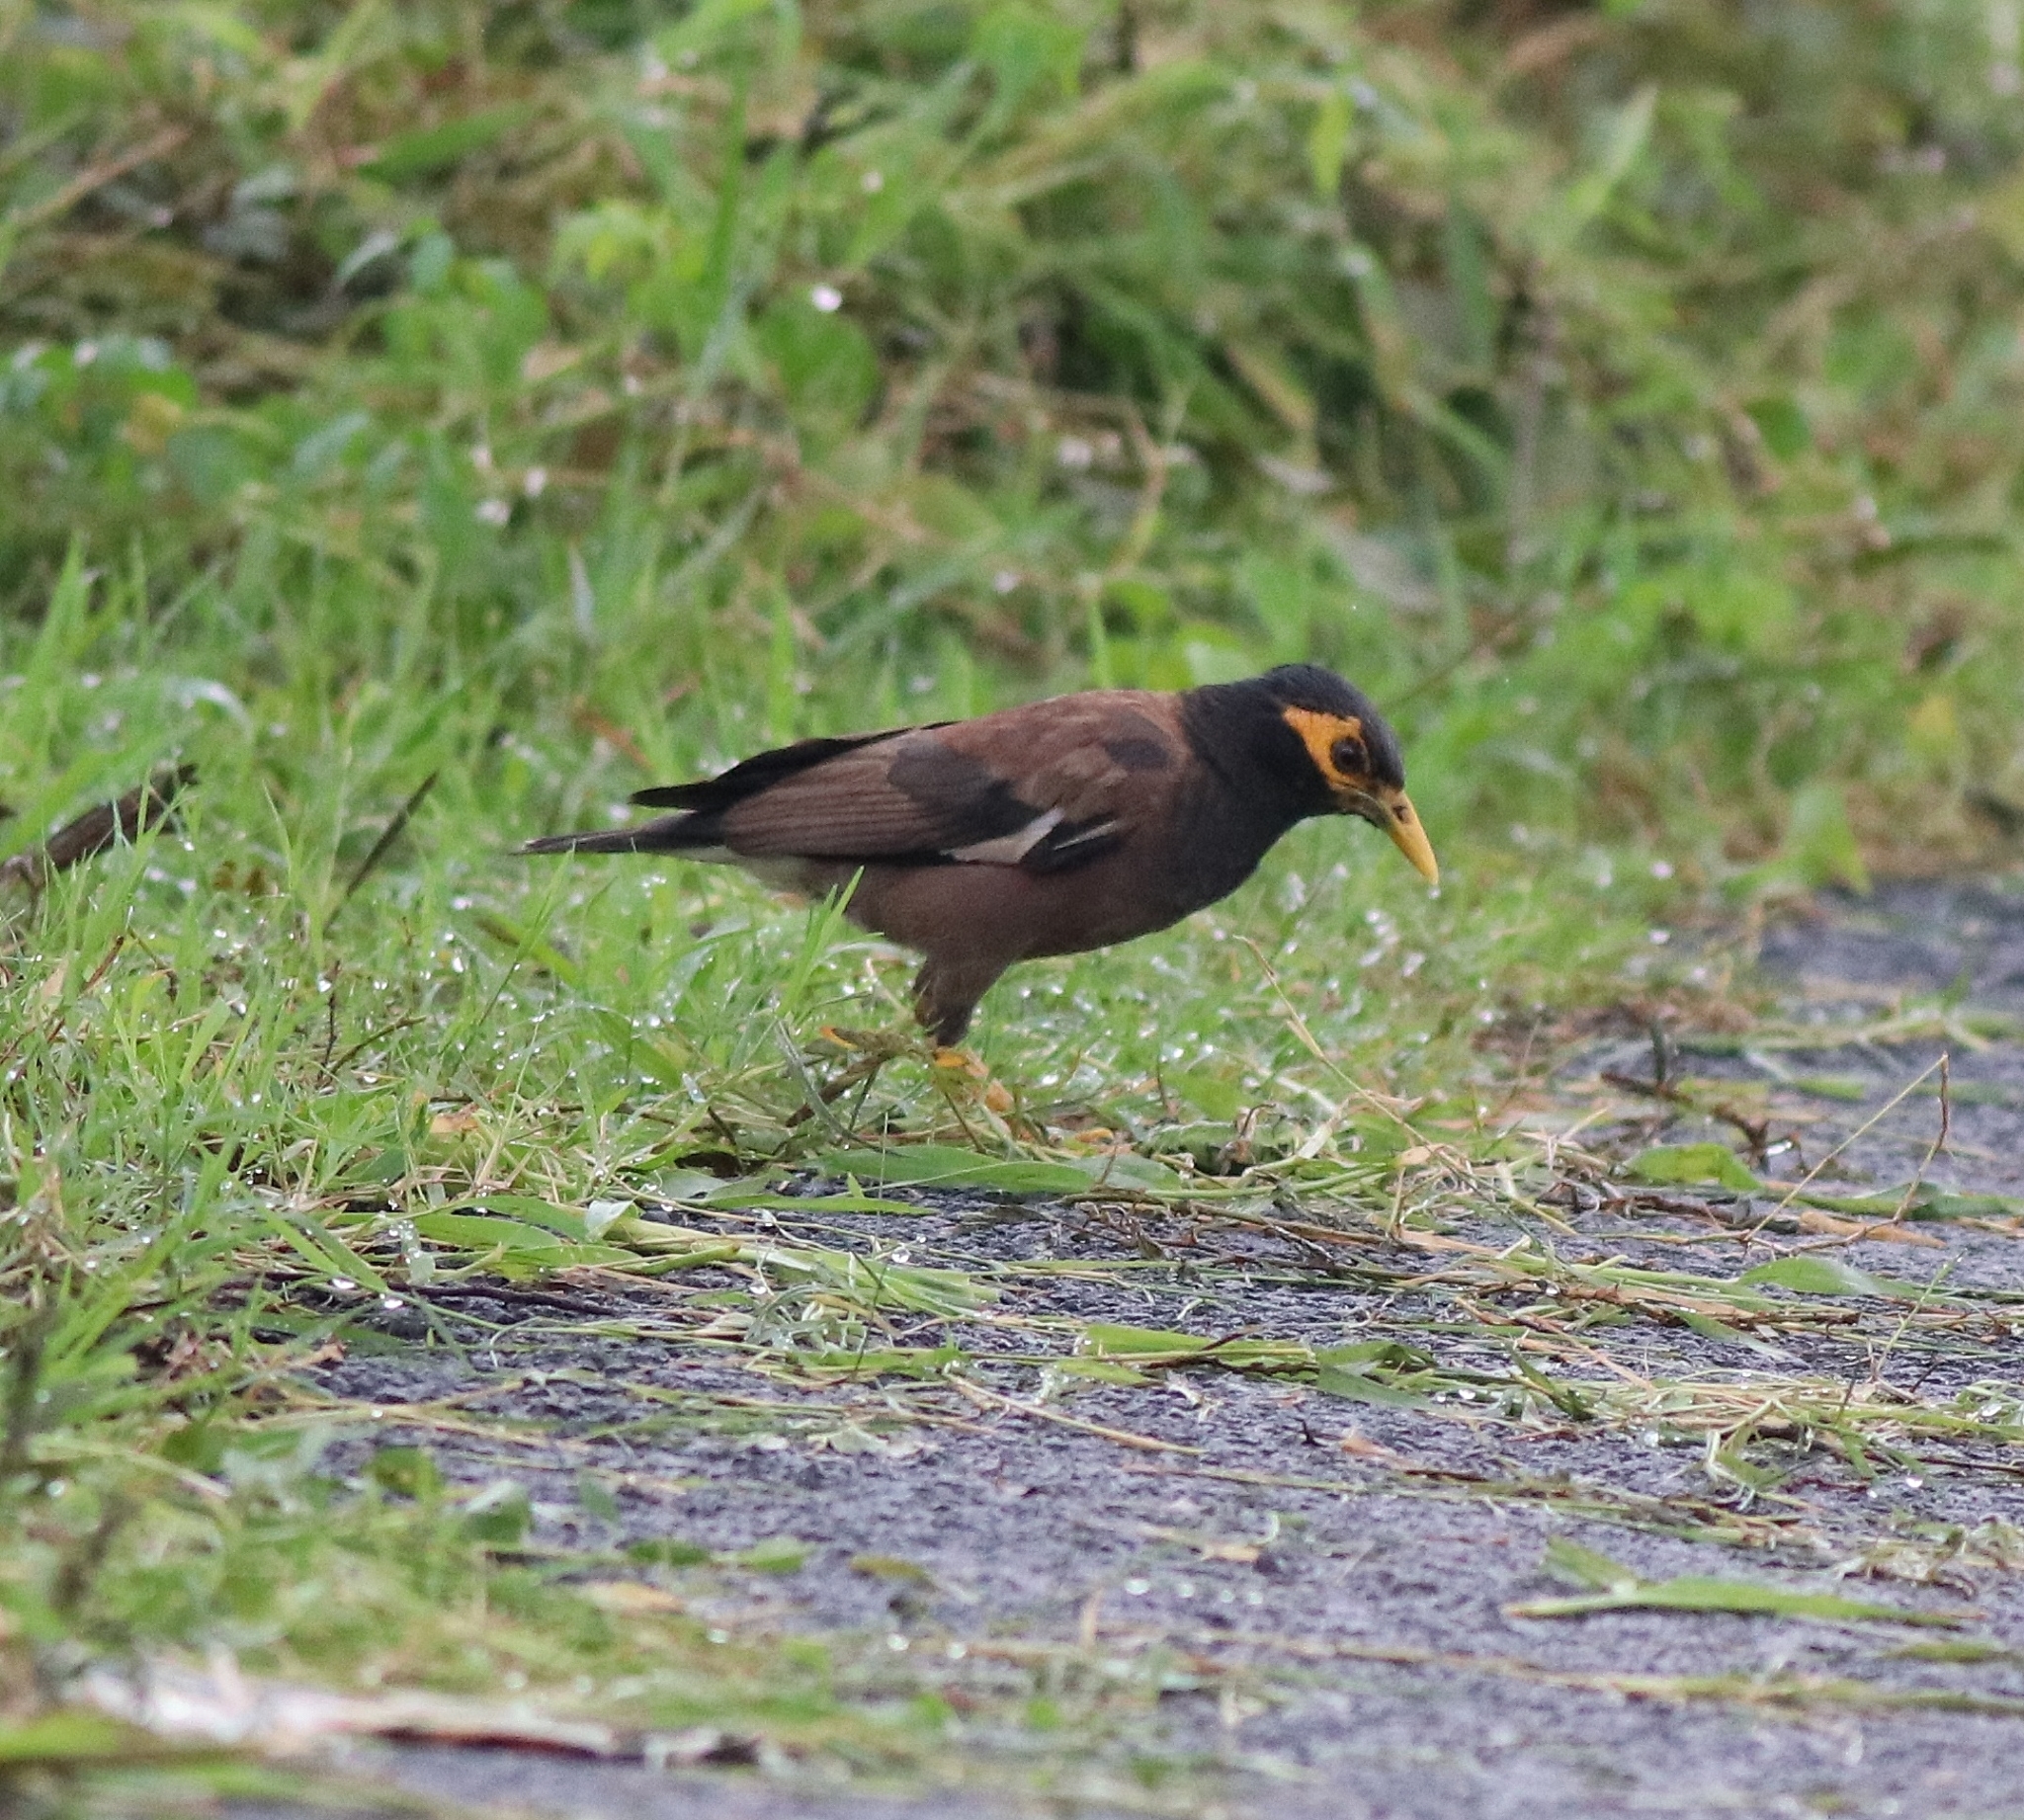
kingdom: Animalia
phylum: Chordata
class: Aves
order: Passeriformes
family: Sturnidae
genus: Acridotheres
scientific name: Acridotheres tristis
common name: Common myna
